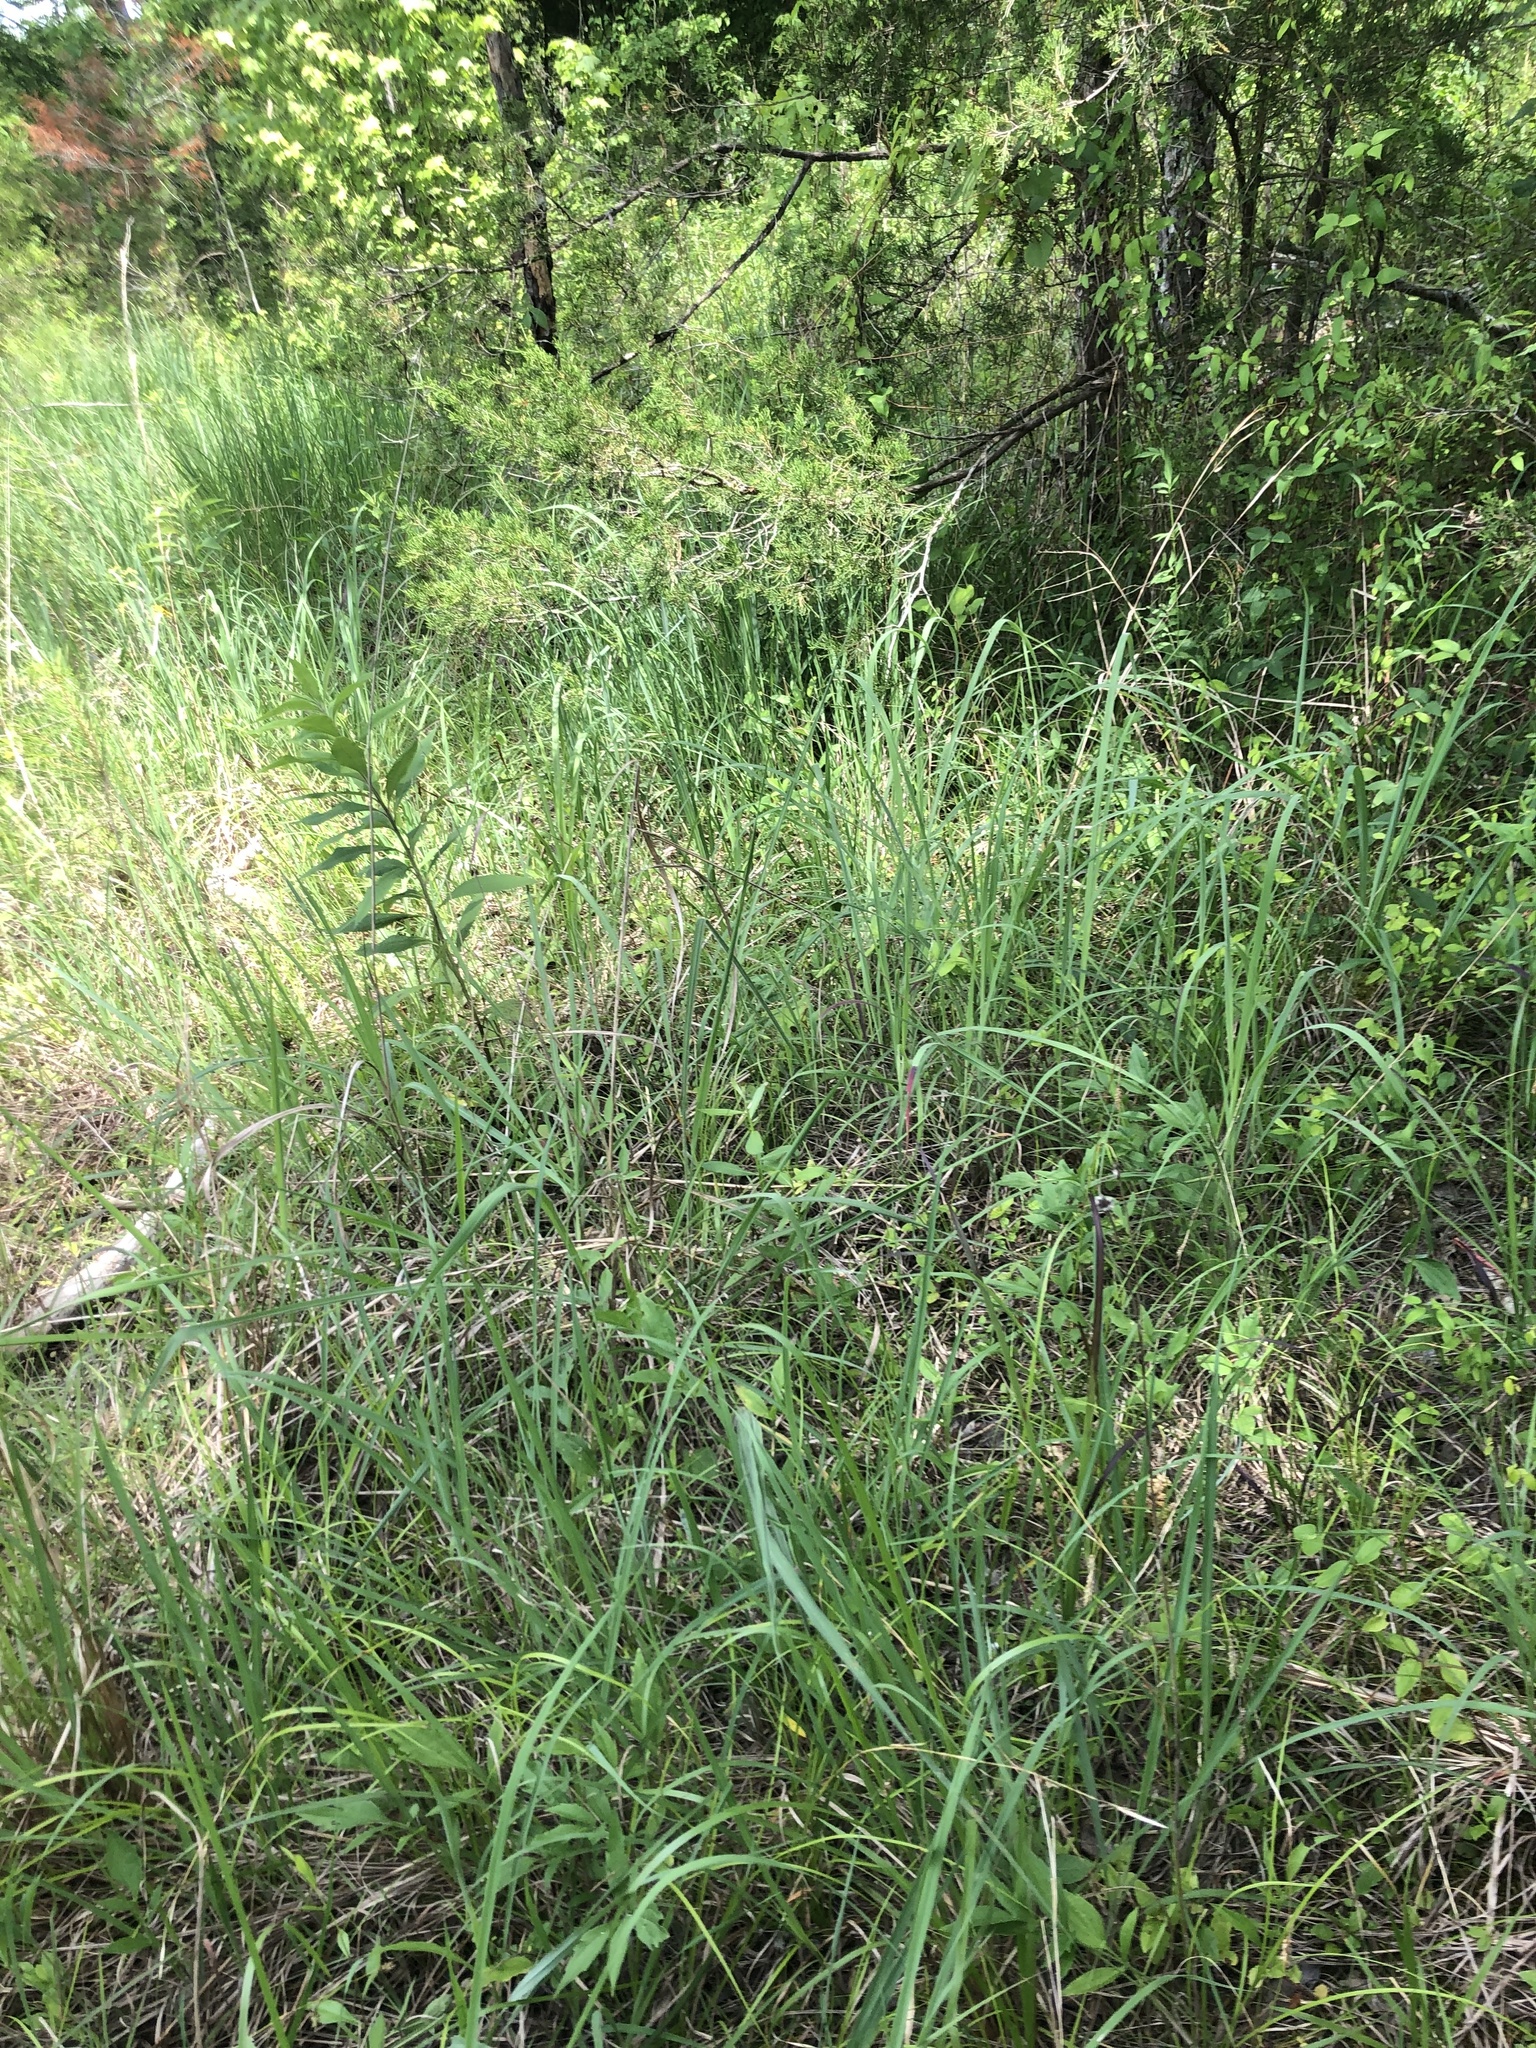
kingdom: Plantae
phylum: Tracheophyta
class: Magnoliopsida
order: Rosales
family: Rhamnaceae
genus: Berchemia
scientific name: Berchemia scandens
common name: Supplejack
